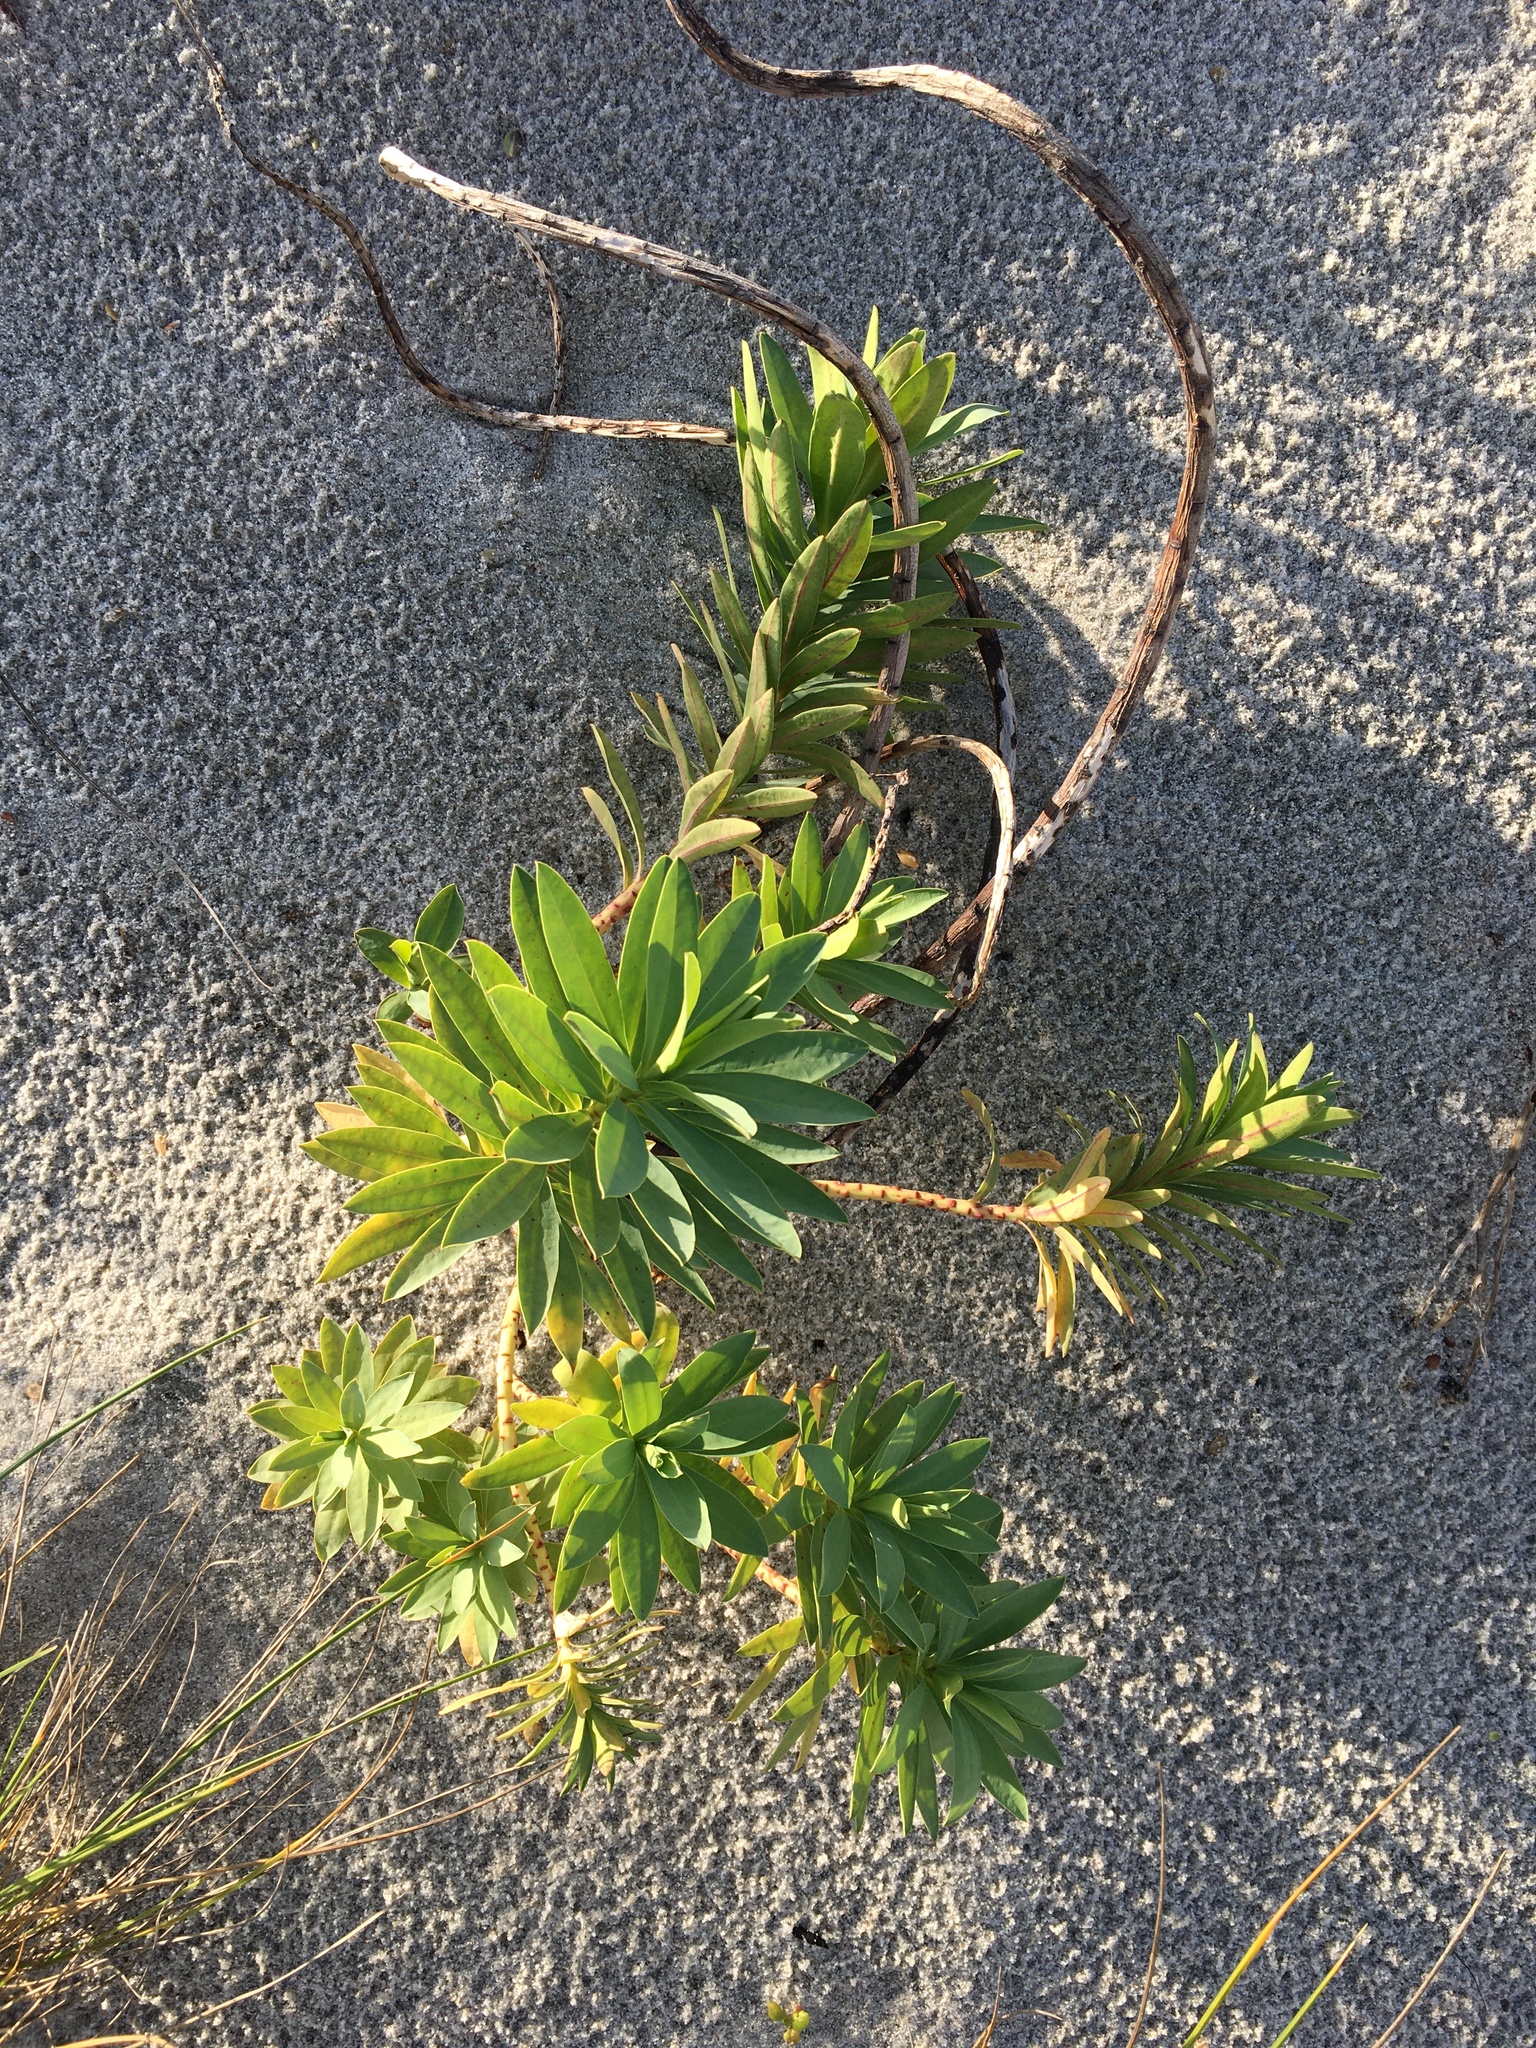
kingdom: Plantae
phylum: Tracheophyta
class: Magnoliopsida
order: Malpighiales
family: Euphorbiaceae
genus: Euphorbia
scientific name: Euphorbia glauca
